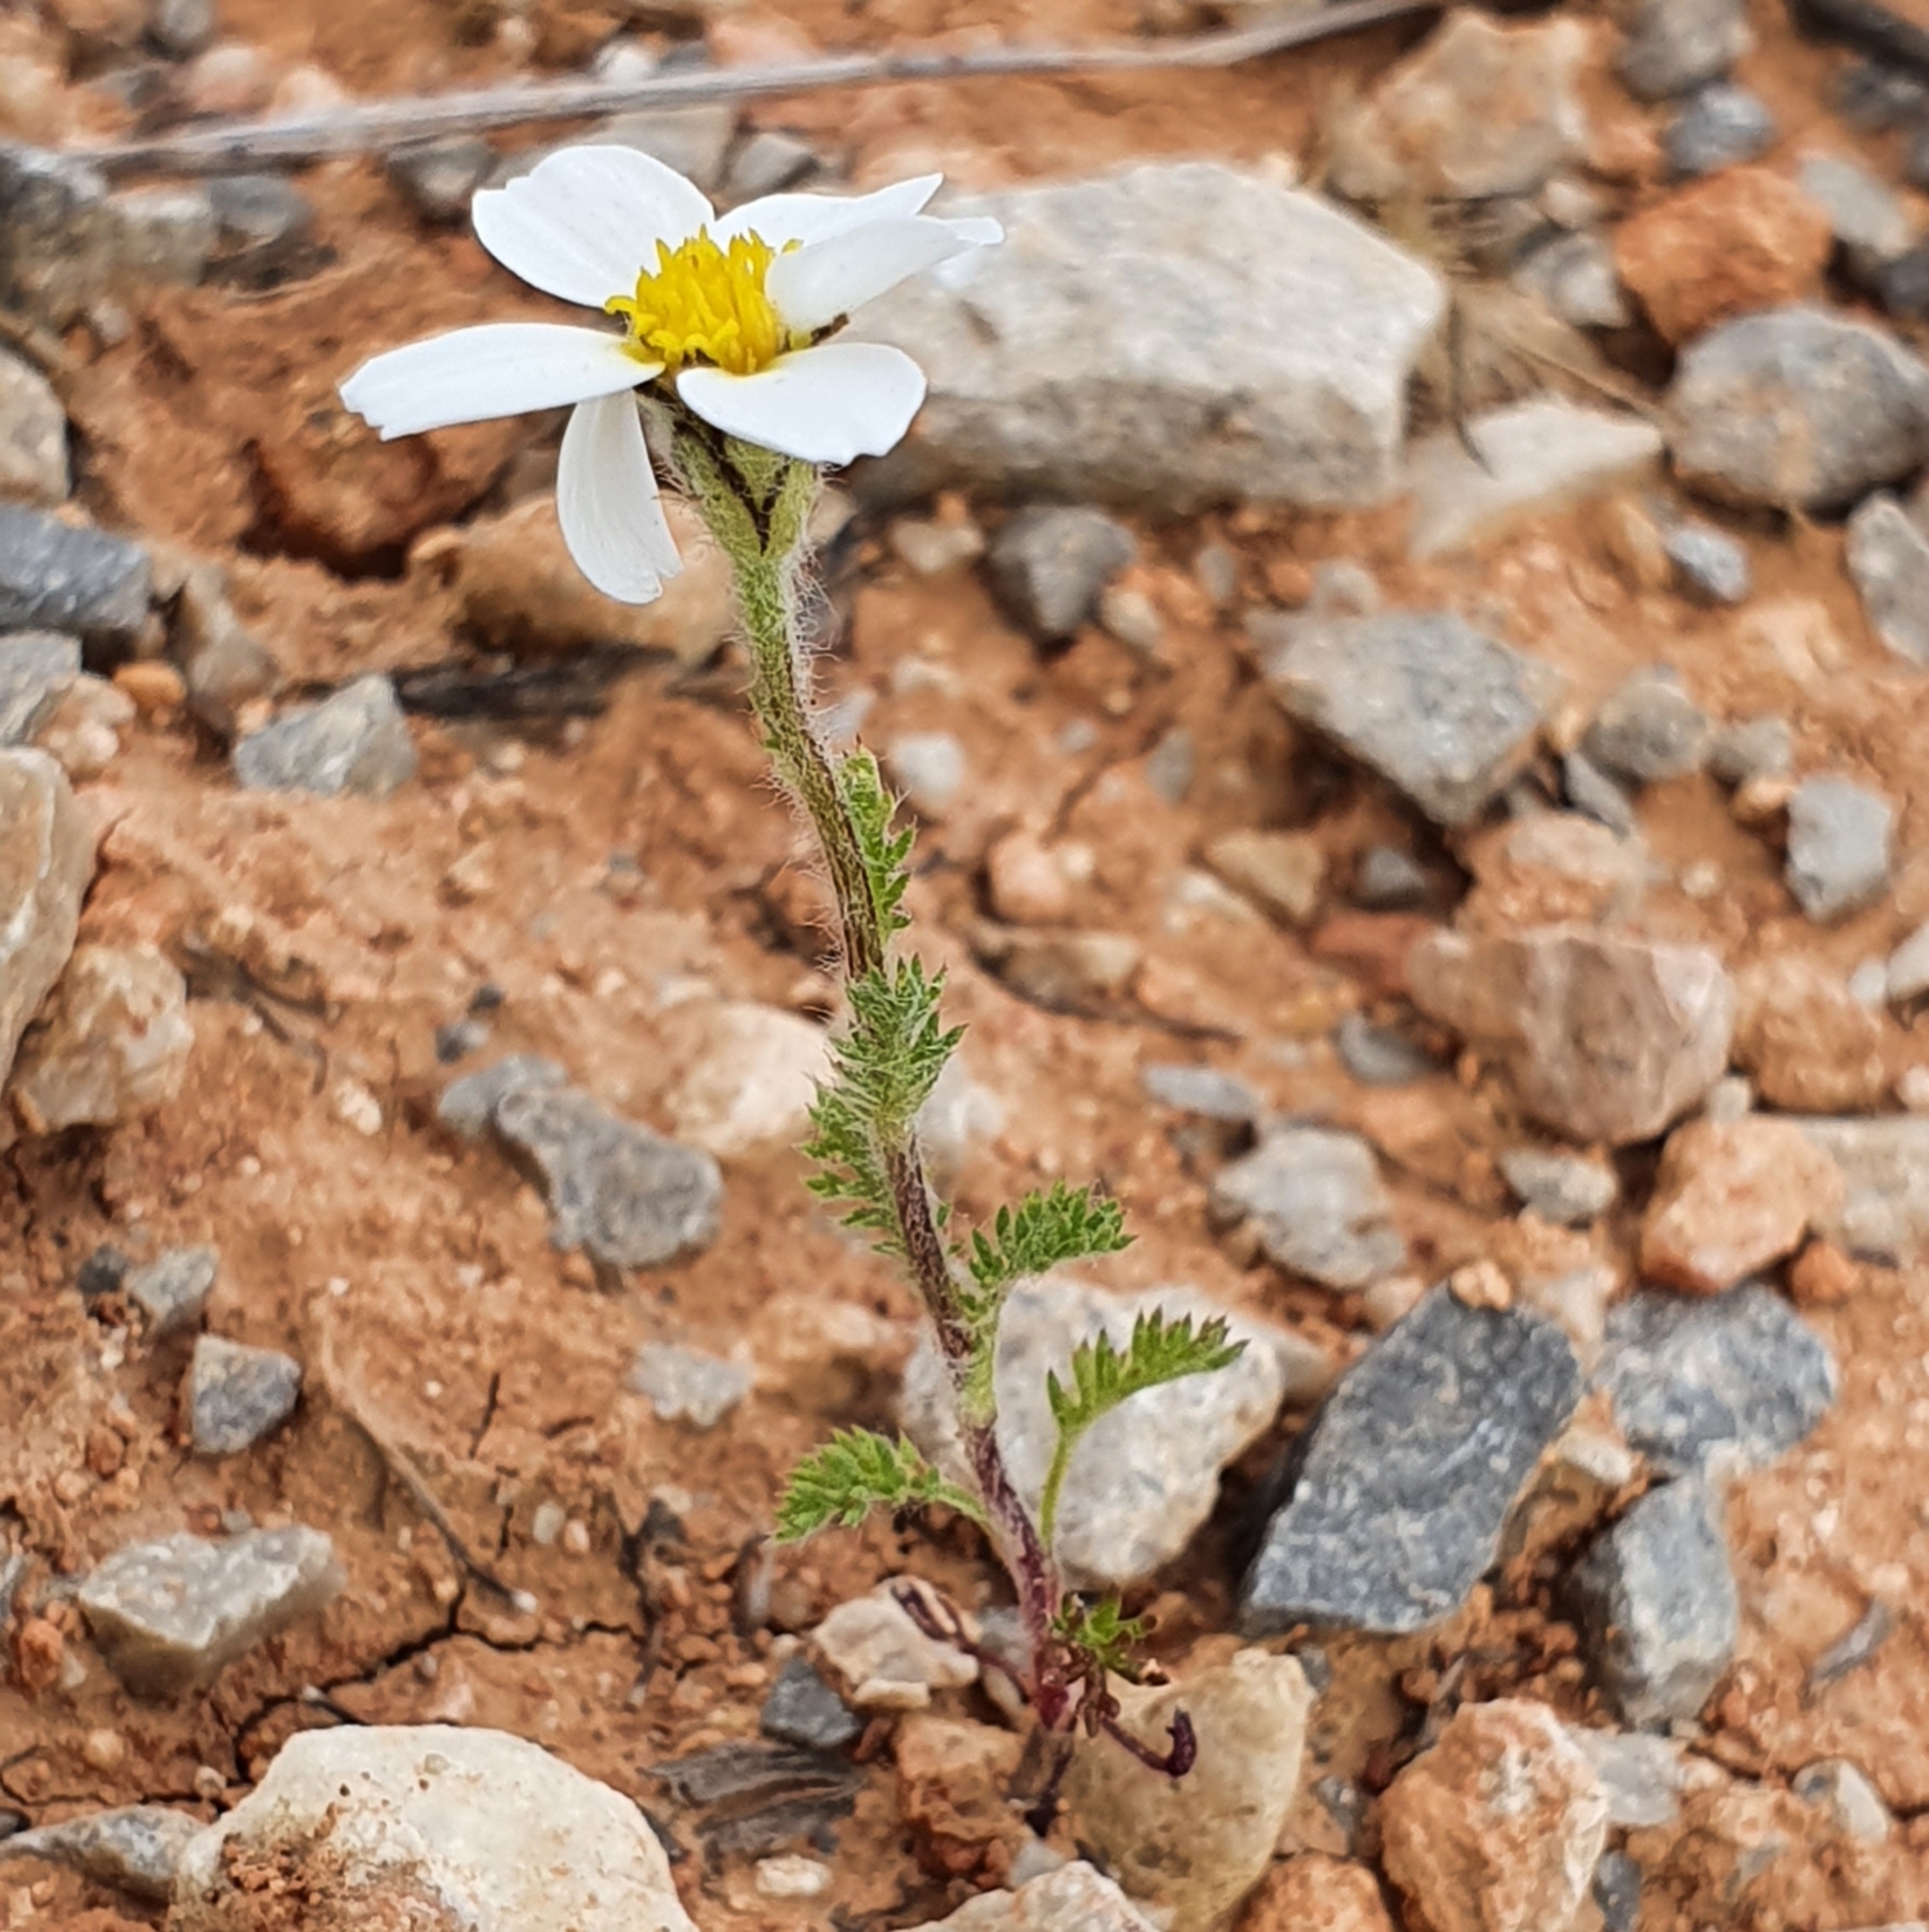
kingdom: Plantae
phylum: Tracheophyta
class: Magnoliopsida
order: Asterales
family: Asteraceae
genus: Anacyclus
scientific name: Anacyclus clavatus
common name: Whitebuttons
